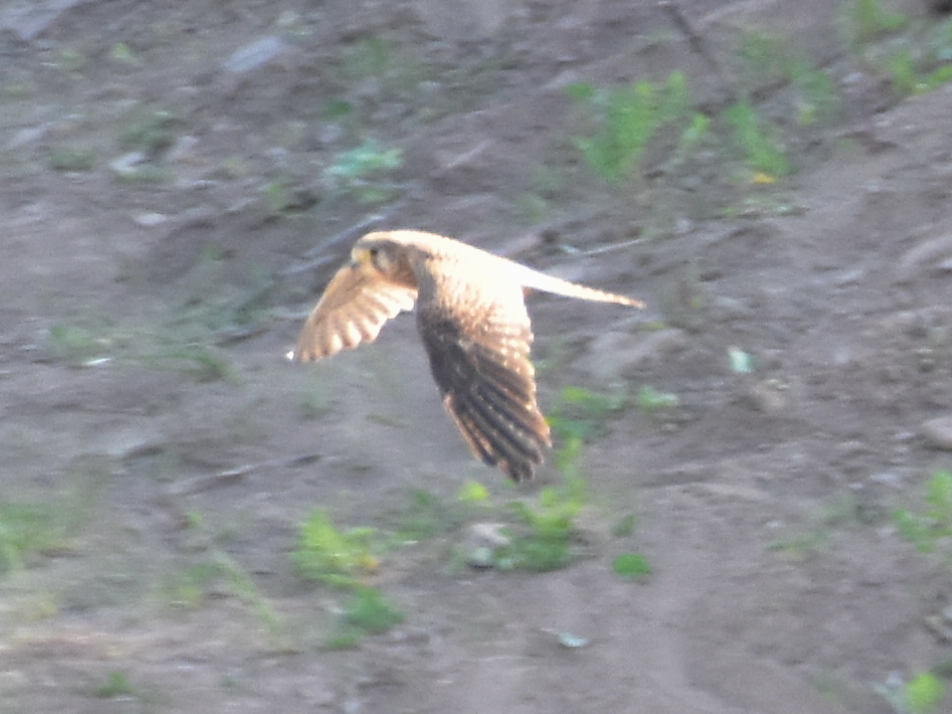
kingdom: Animalia
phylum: Chordata
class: Aves
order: Falconiformes
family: Falconidae
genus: Falco
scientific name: Falco tinnunculus
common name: Common kestrel
